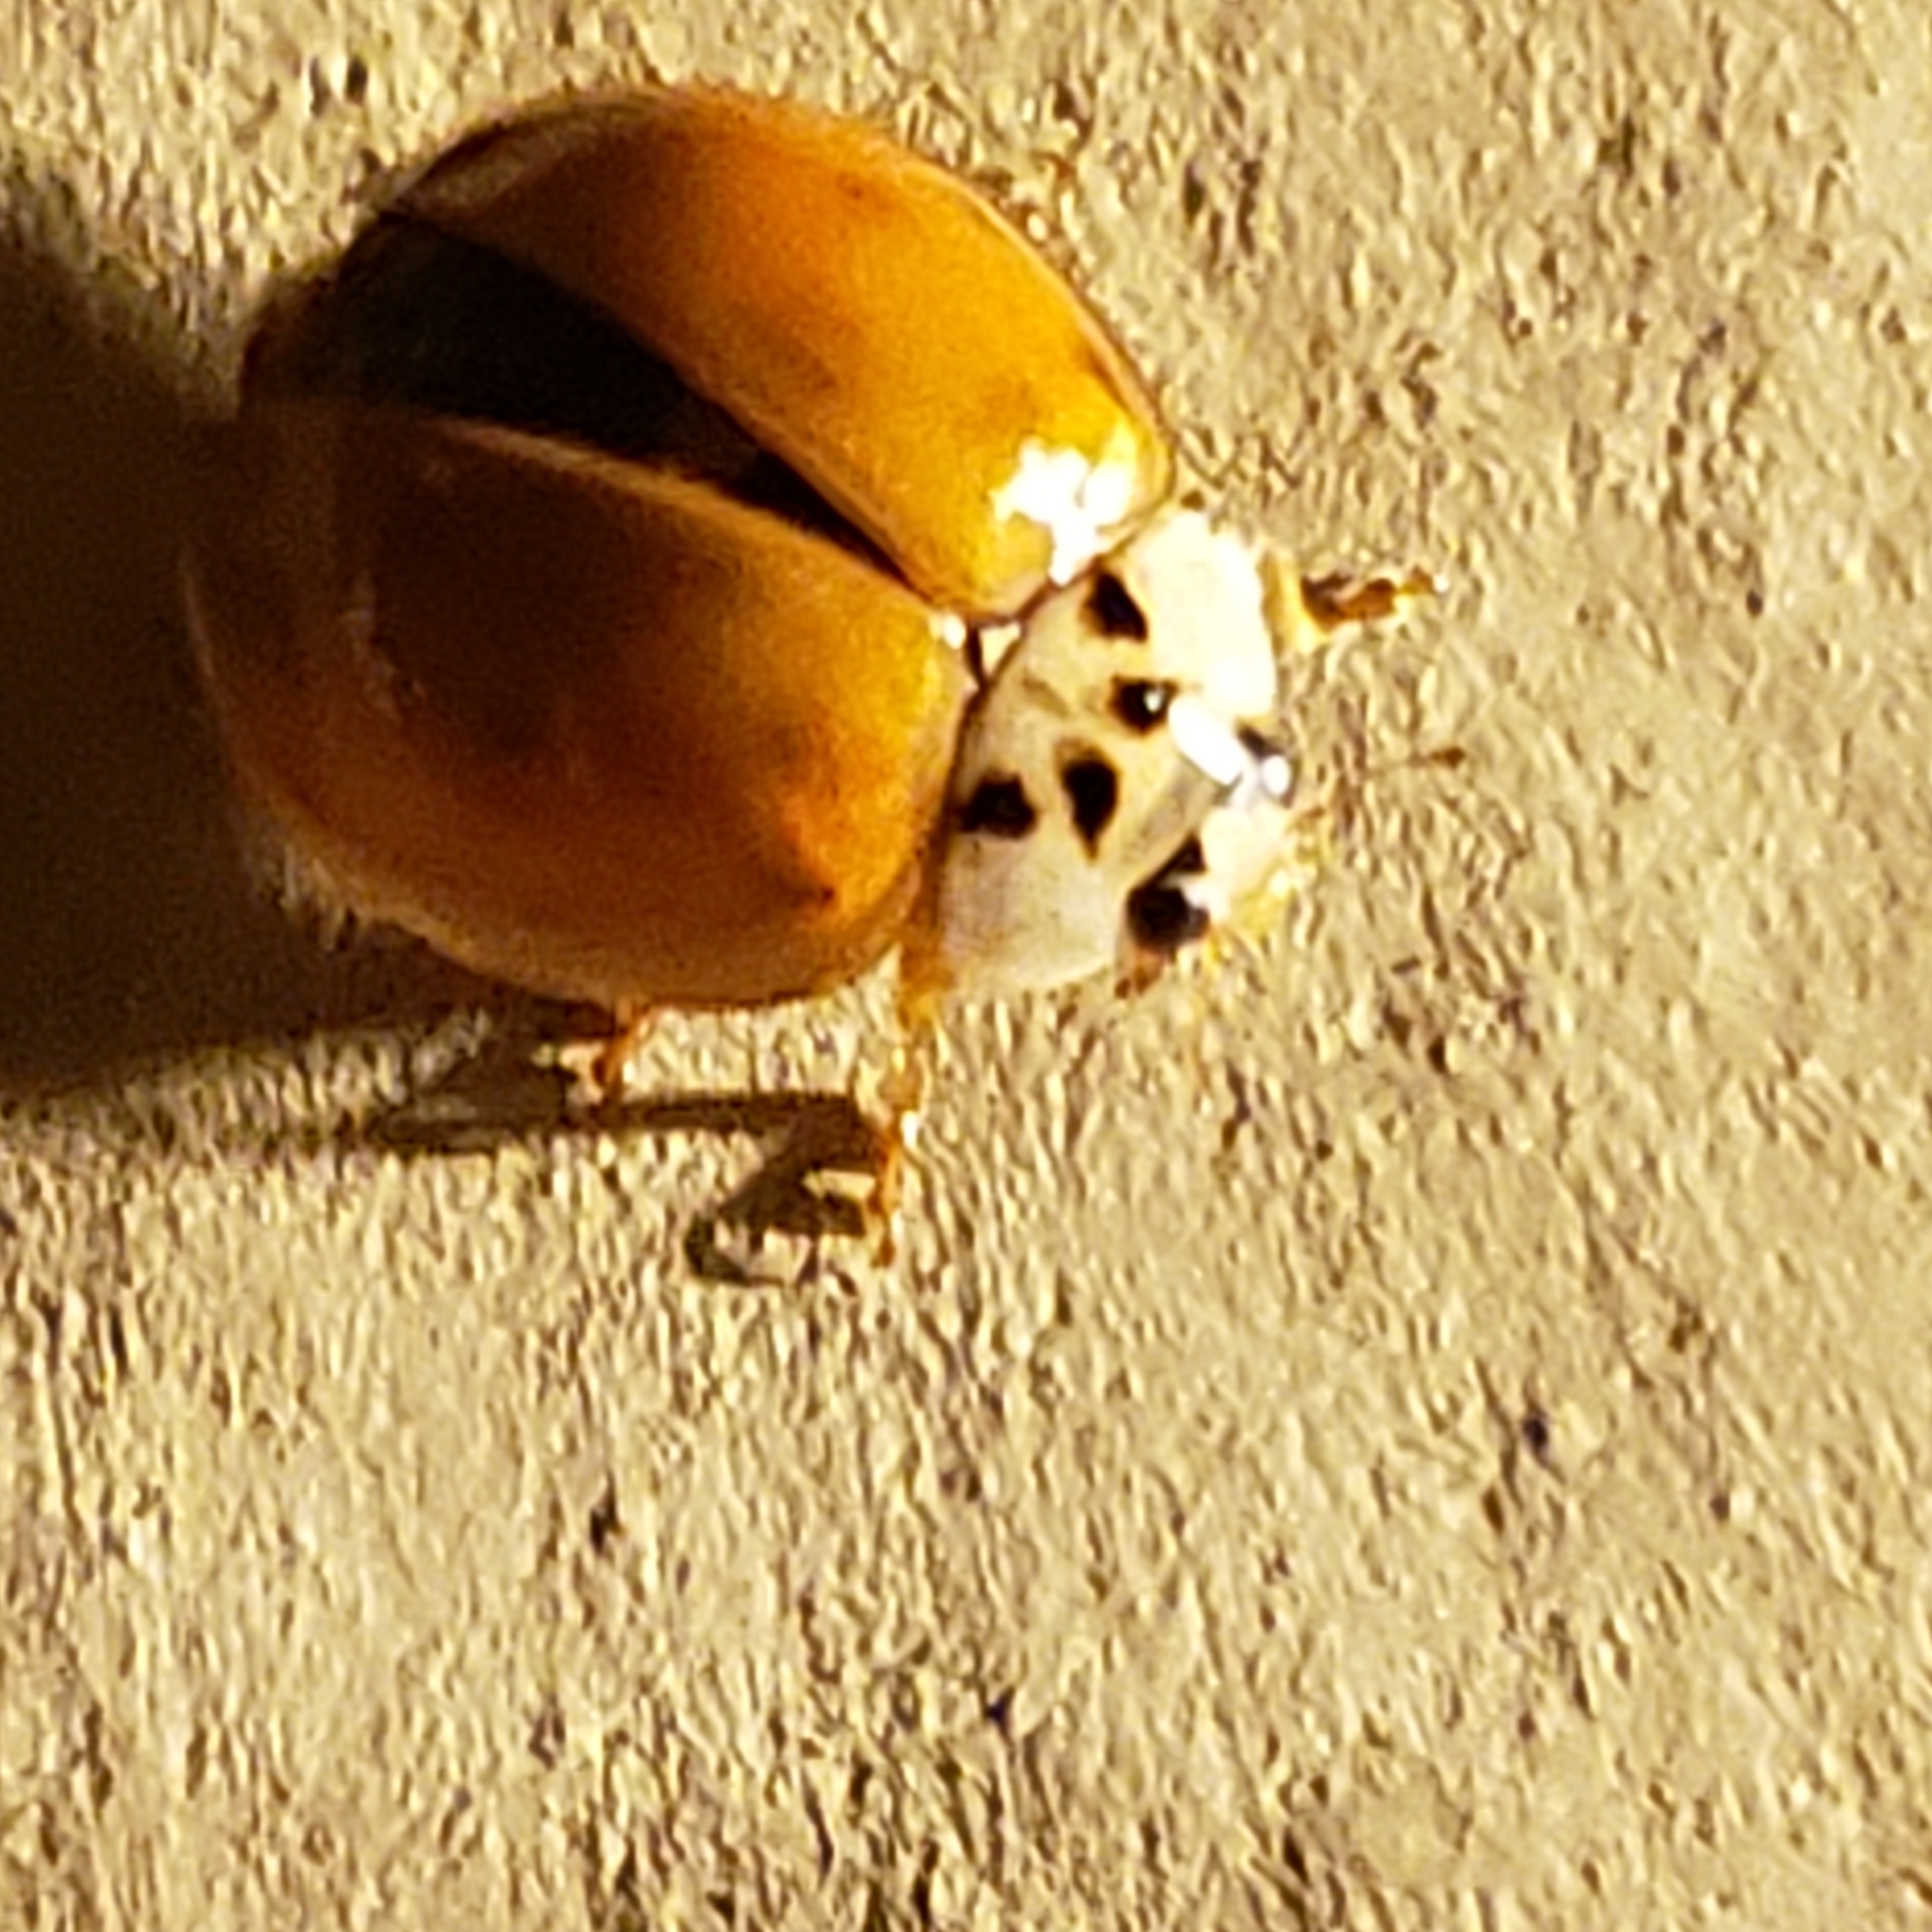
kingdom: Animalia
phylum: Arthropoda
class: Insecta
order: Coleoptera
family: Coccinellidae
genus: Harmonia
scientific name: Harmonia axyridis
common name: Harlequin ladybird
